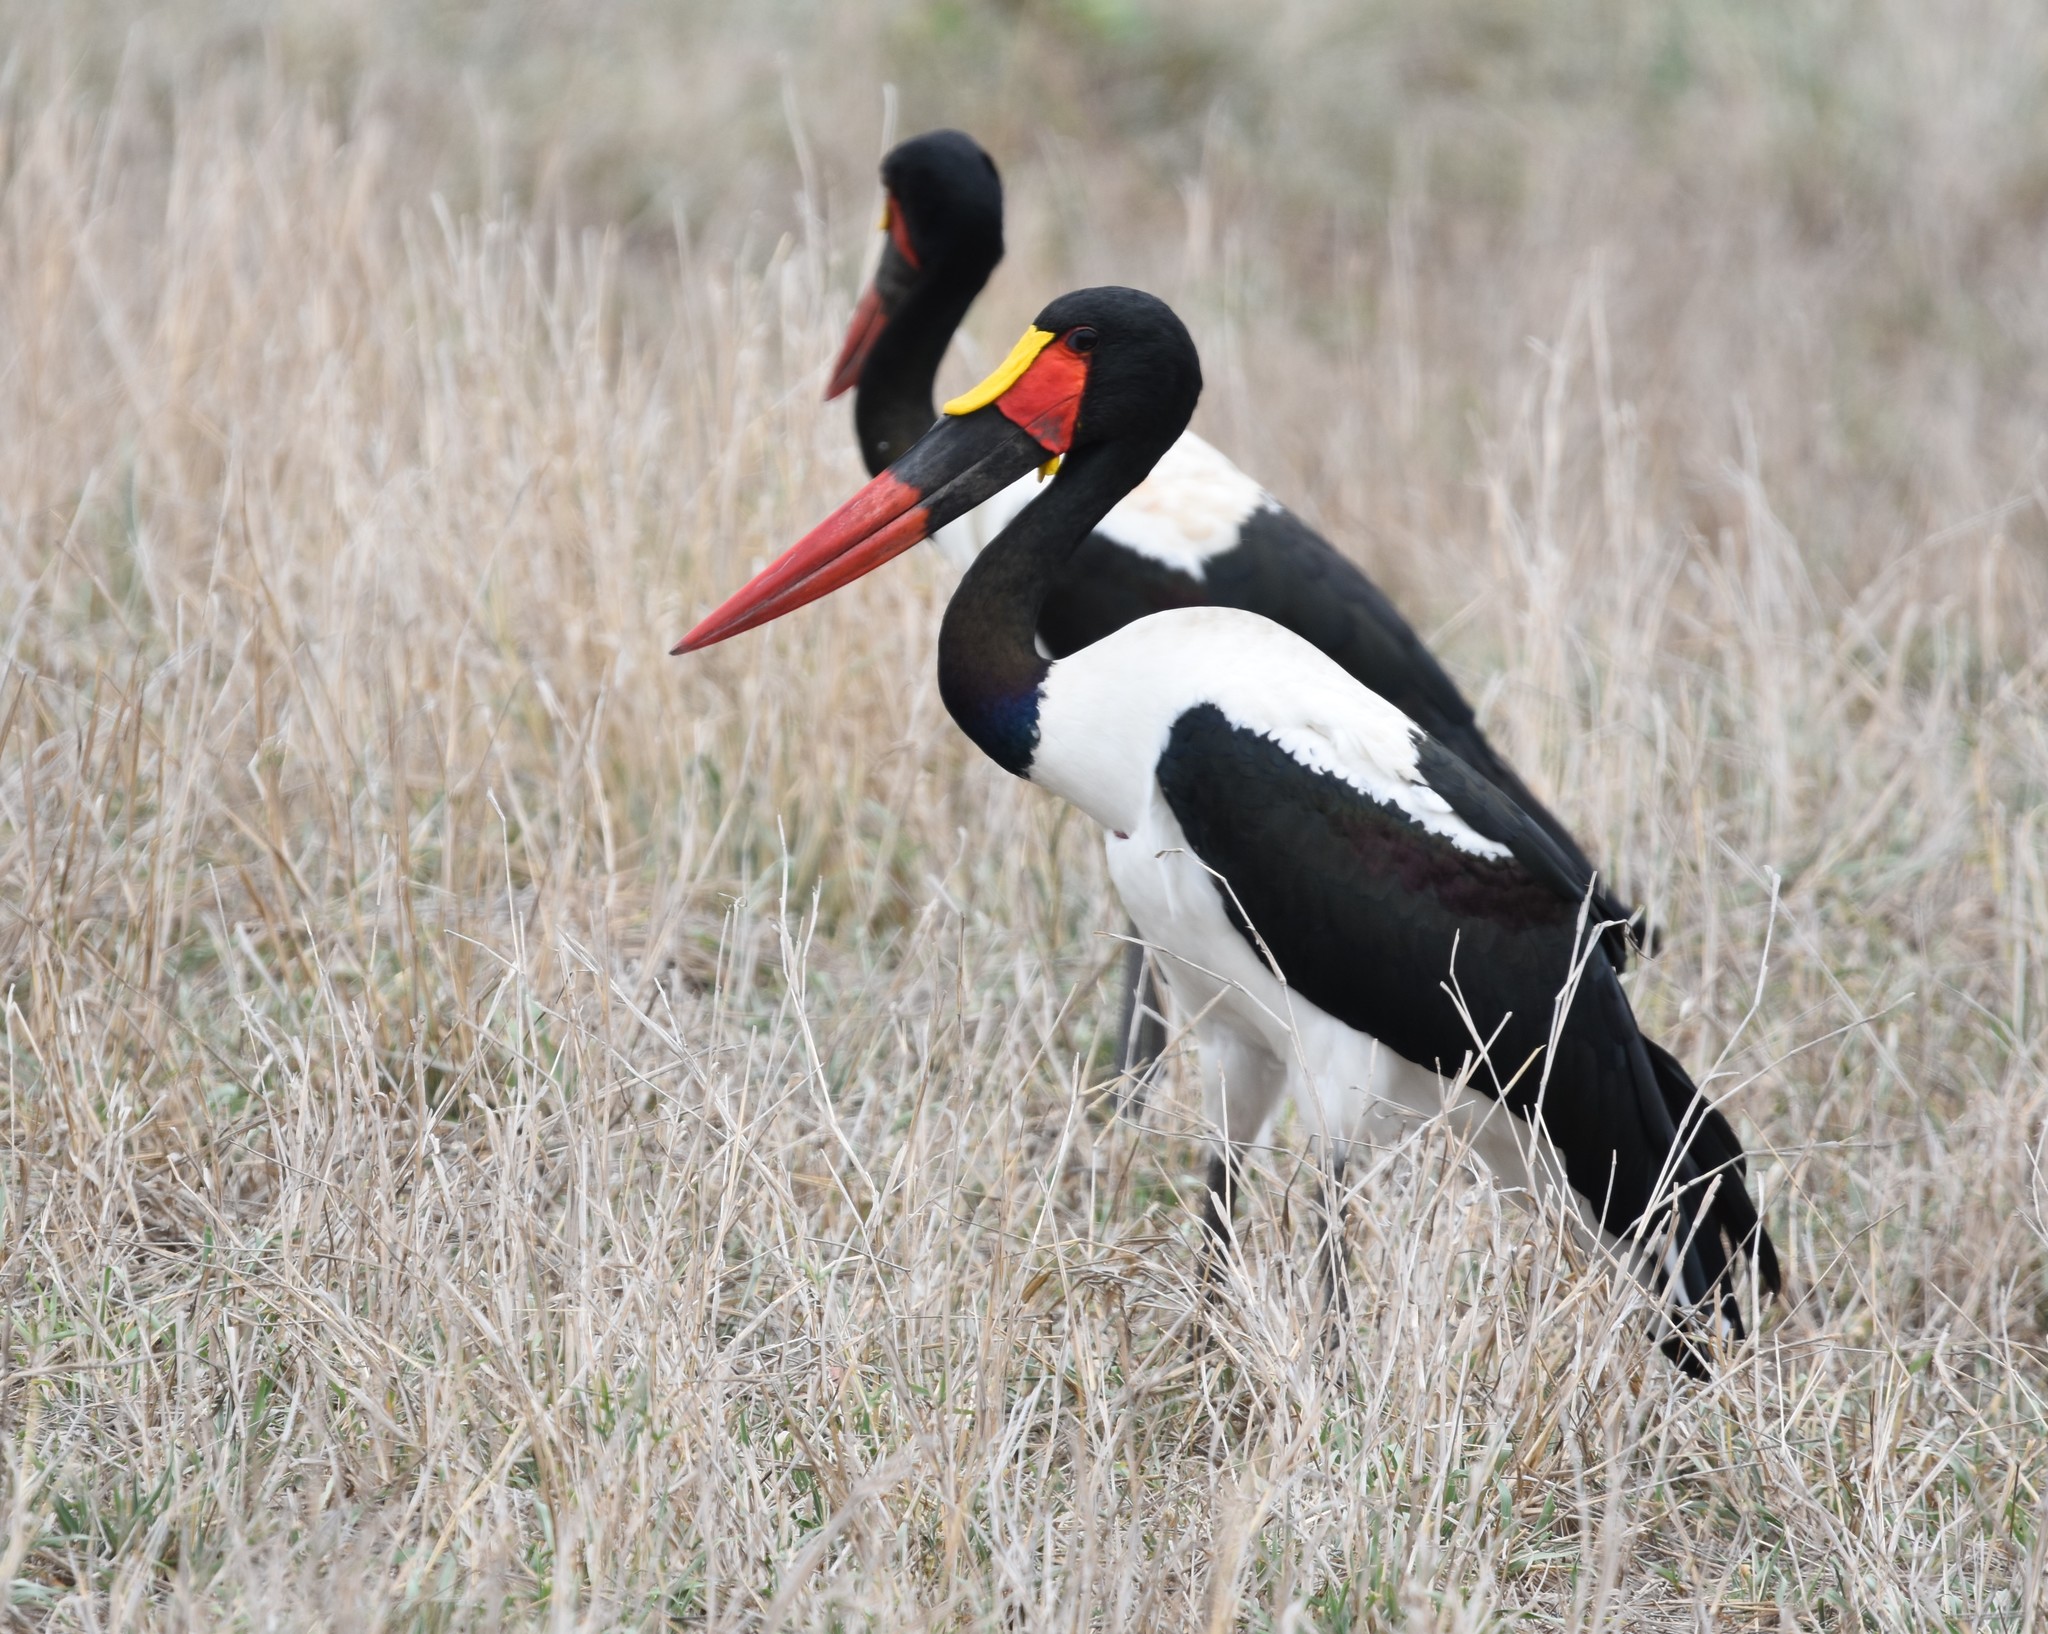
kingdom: Animalia
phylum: Chordata
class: Aves
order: Ciconiiformes
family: Ciconiidae
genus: Ephippiorhynchus
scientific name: Ephippiorhynchus senegalensis
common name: Saddle-billed stork
